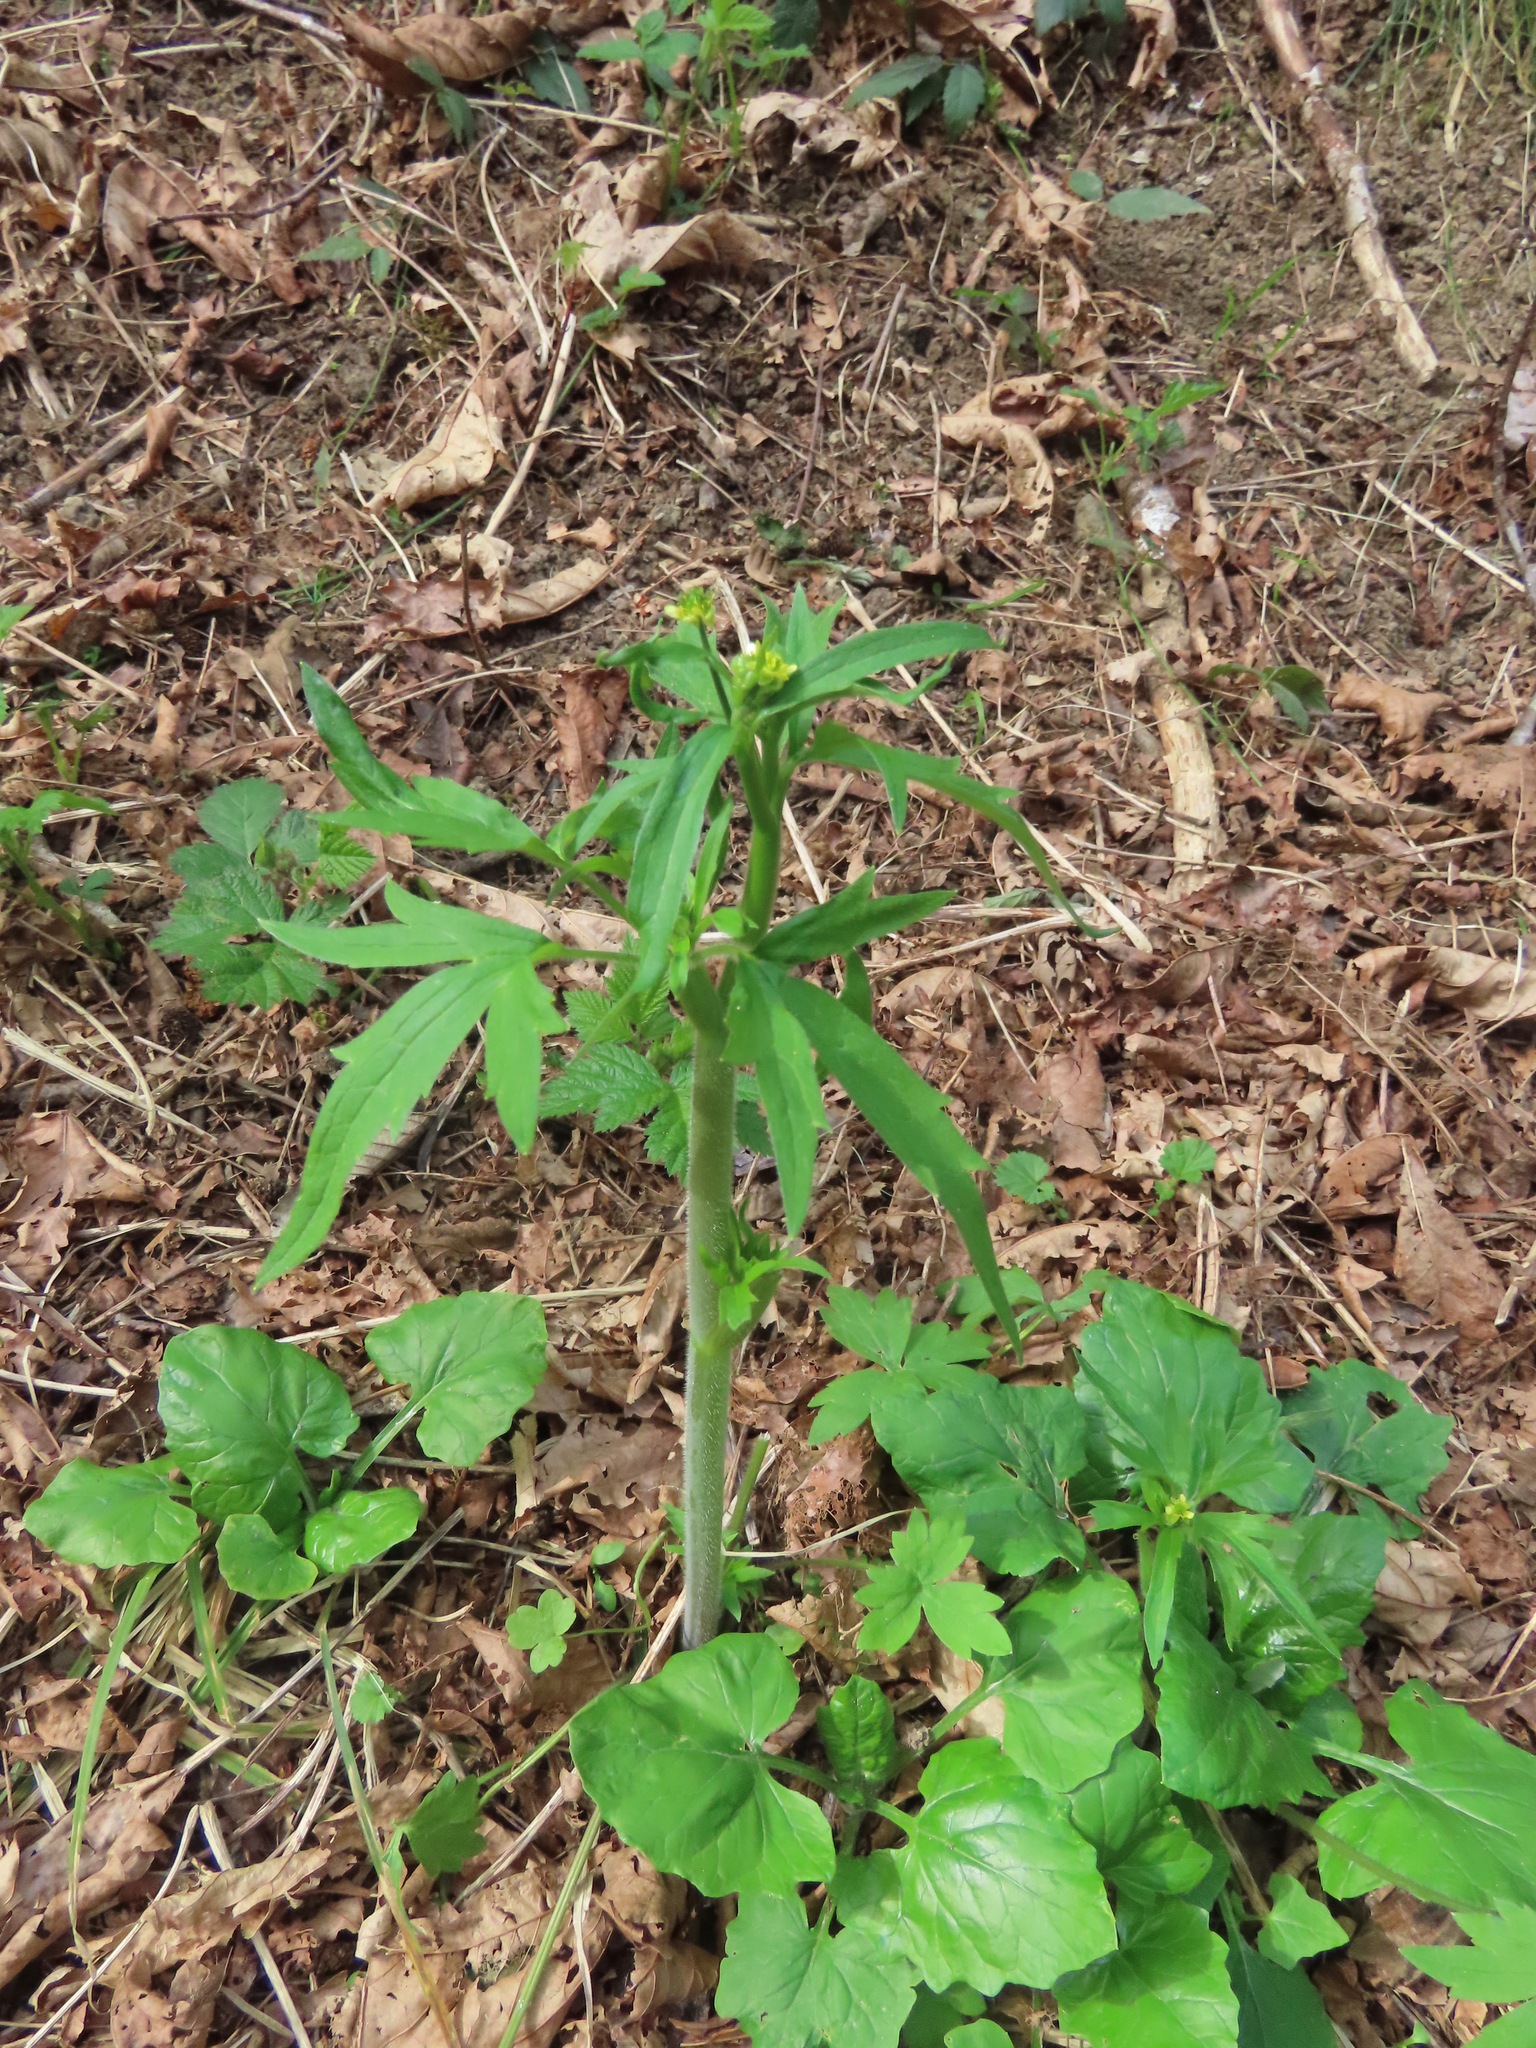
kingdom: Plantae
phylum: Tracheophyta
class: Magnoliopsida
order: Ranunculales
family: Ranunculaceae
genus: Ranunculus
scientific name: Ranunculus uncinatus
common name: Little buttercup
